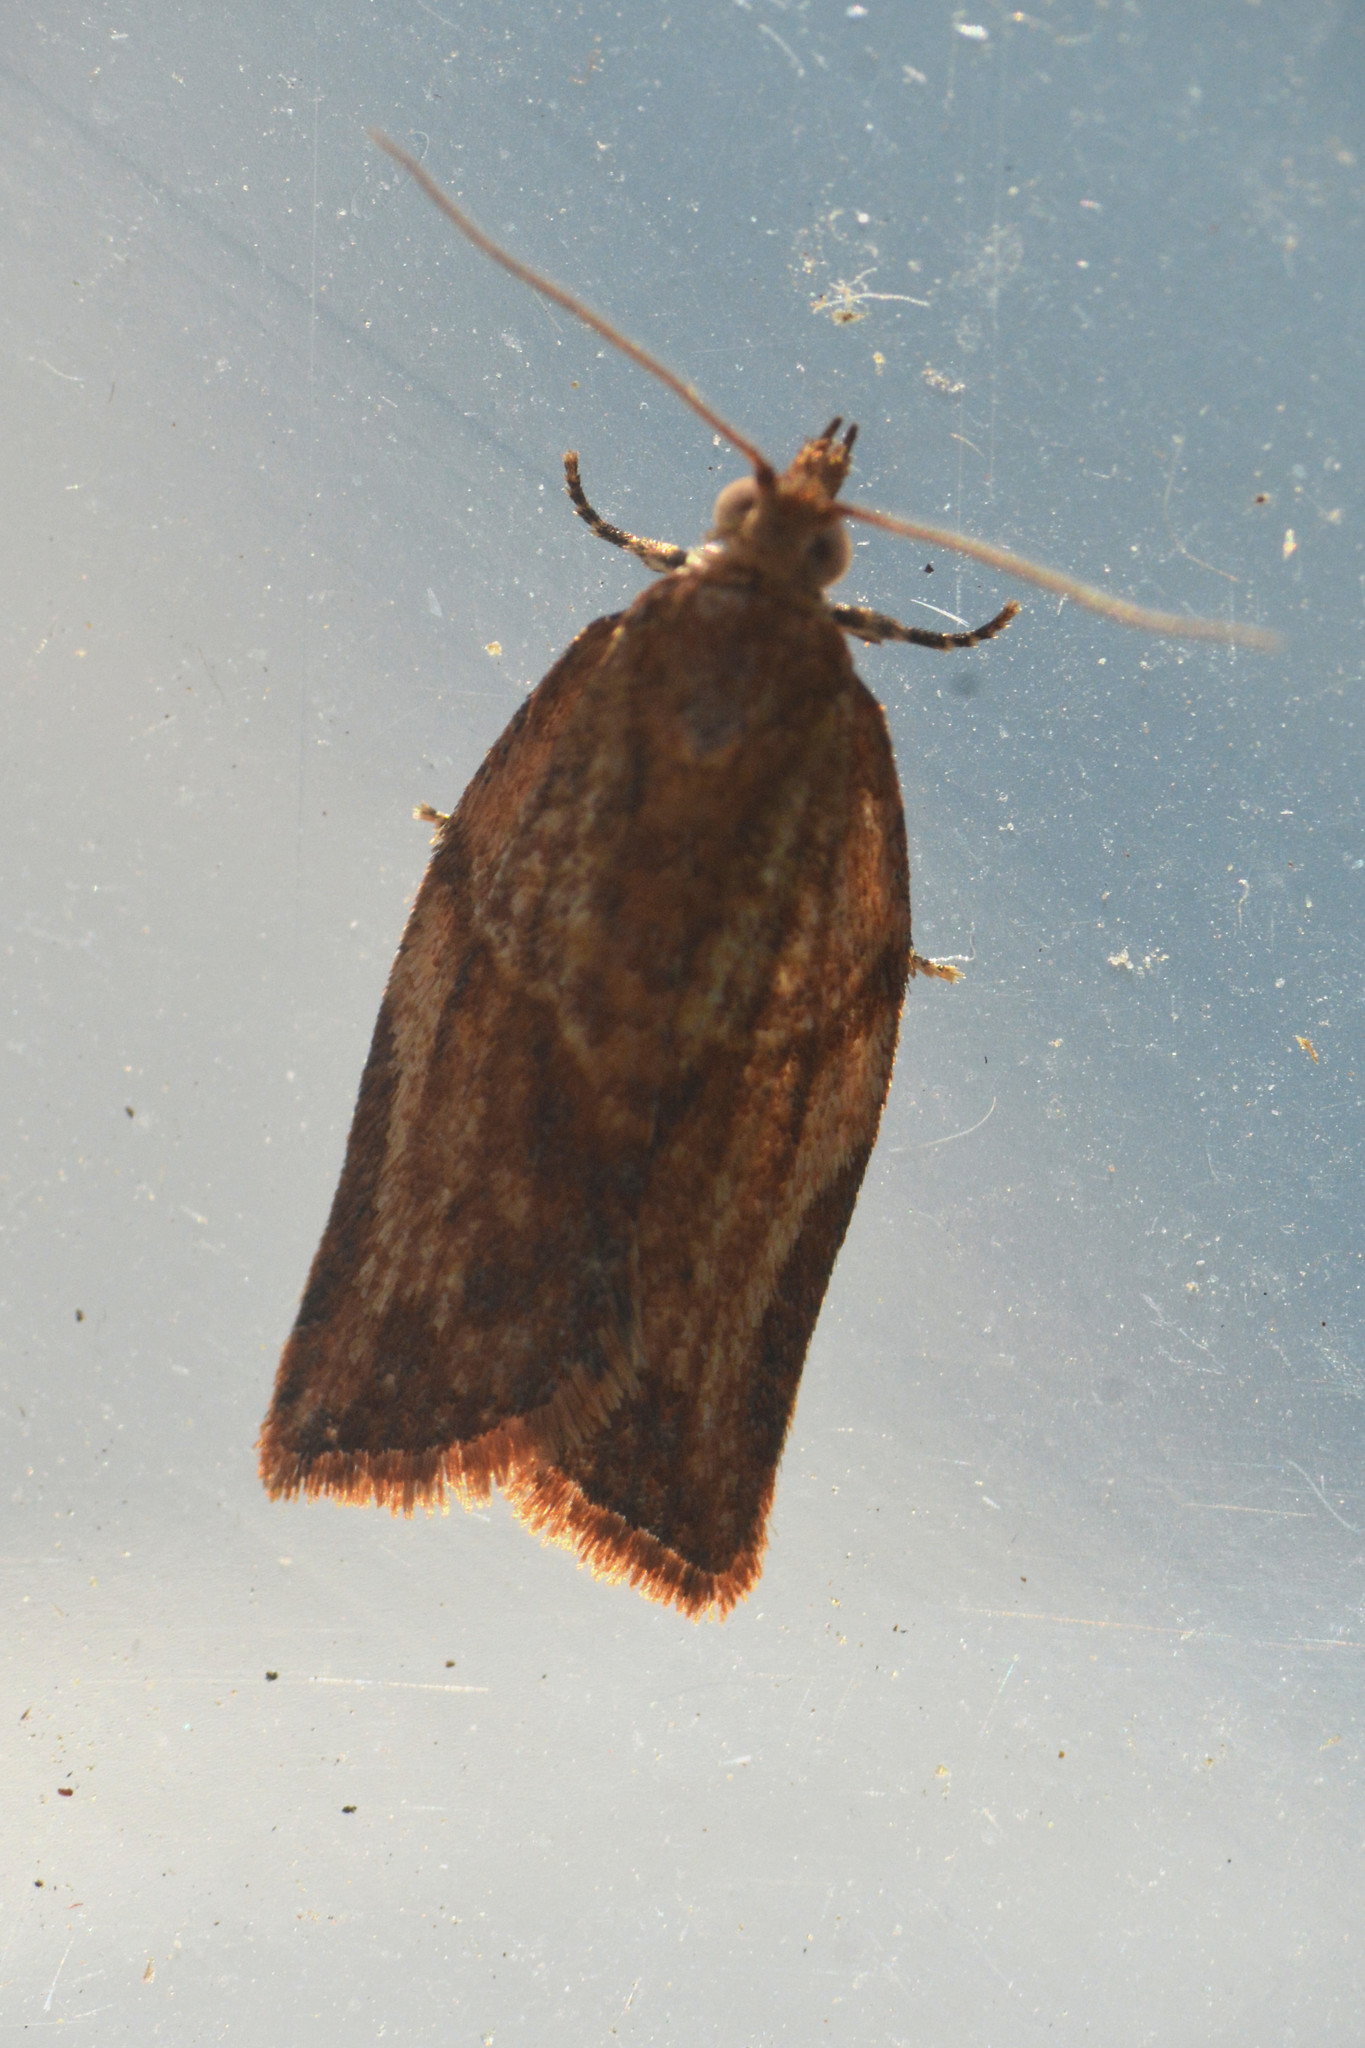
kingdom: Animalia
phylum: Arthropoda
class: Insecta
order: Lepidoptera
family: Tortricidae
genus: Epiphyas
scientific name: Epiphyas postvittana
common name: Light brown apple moth
